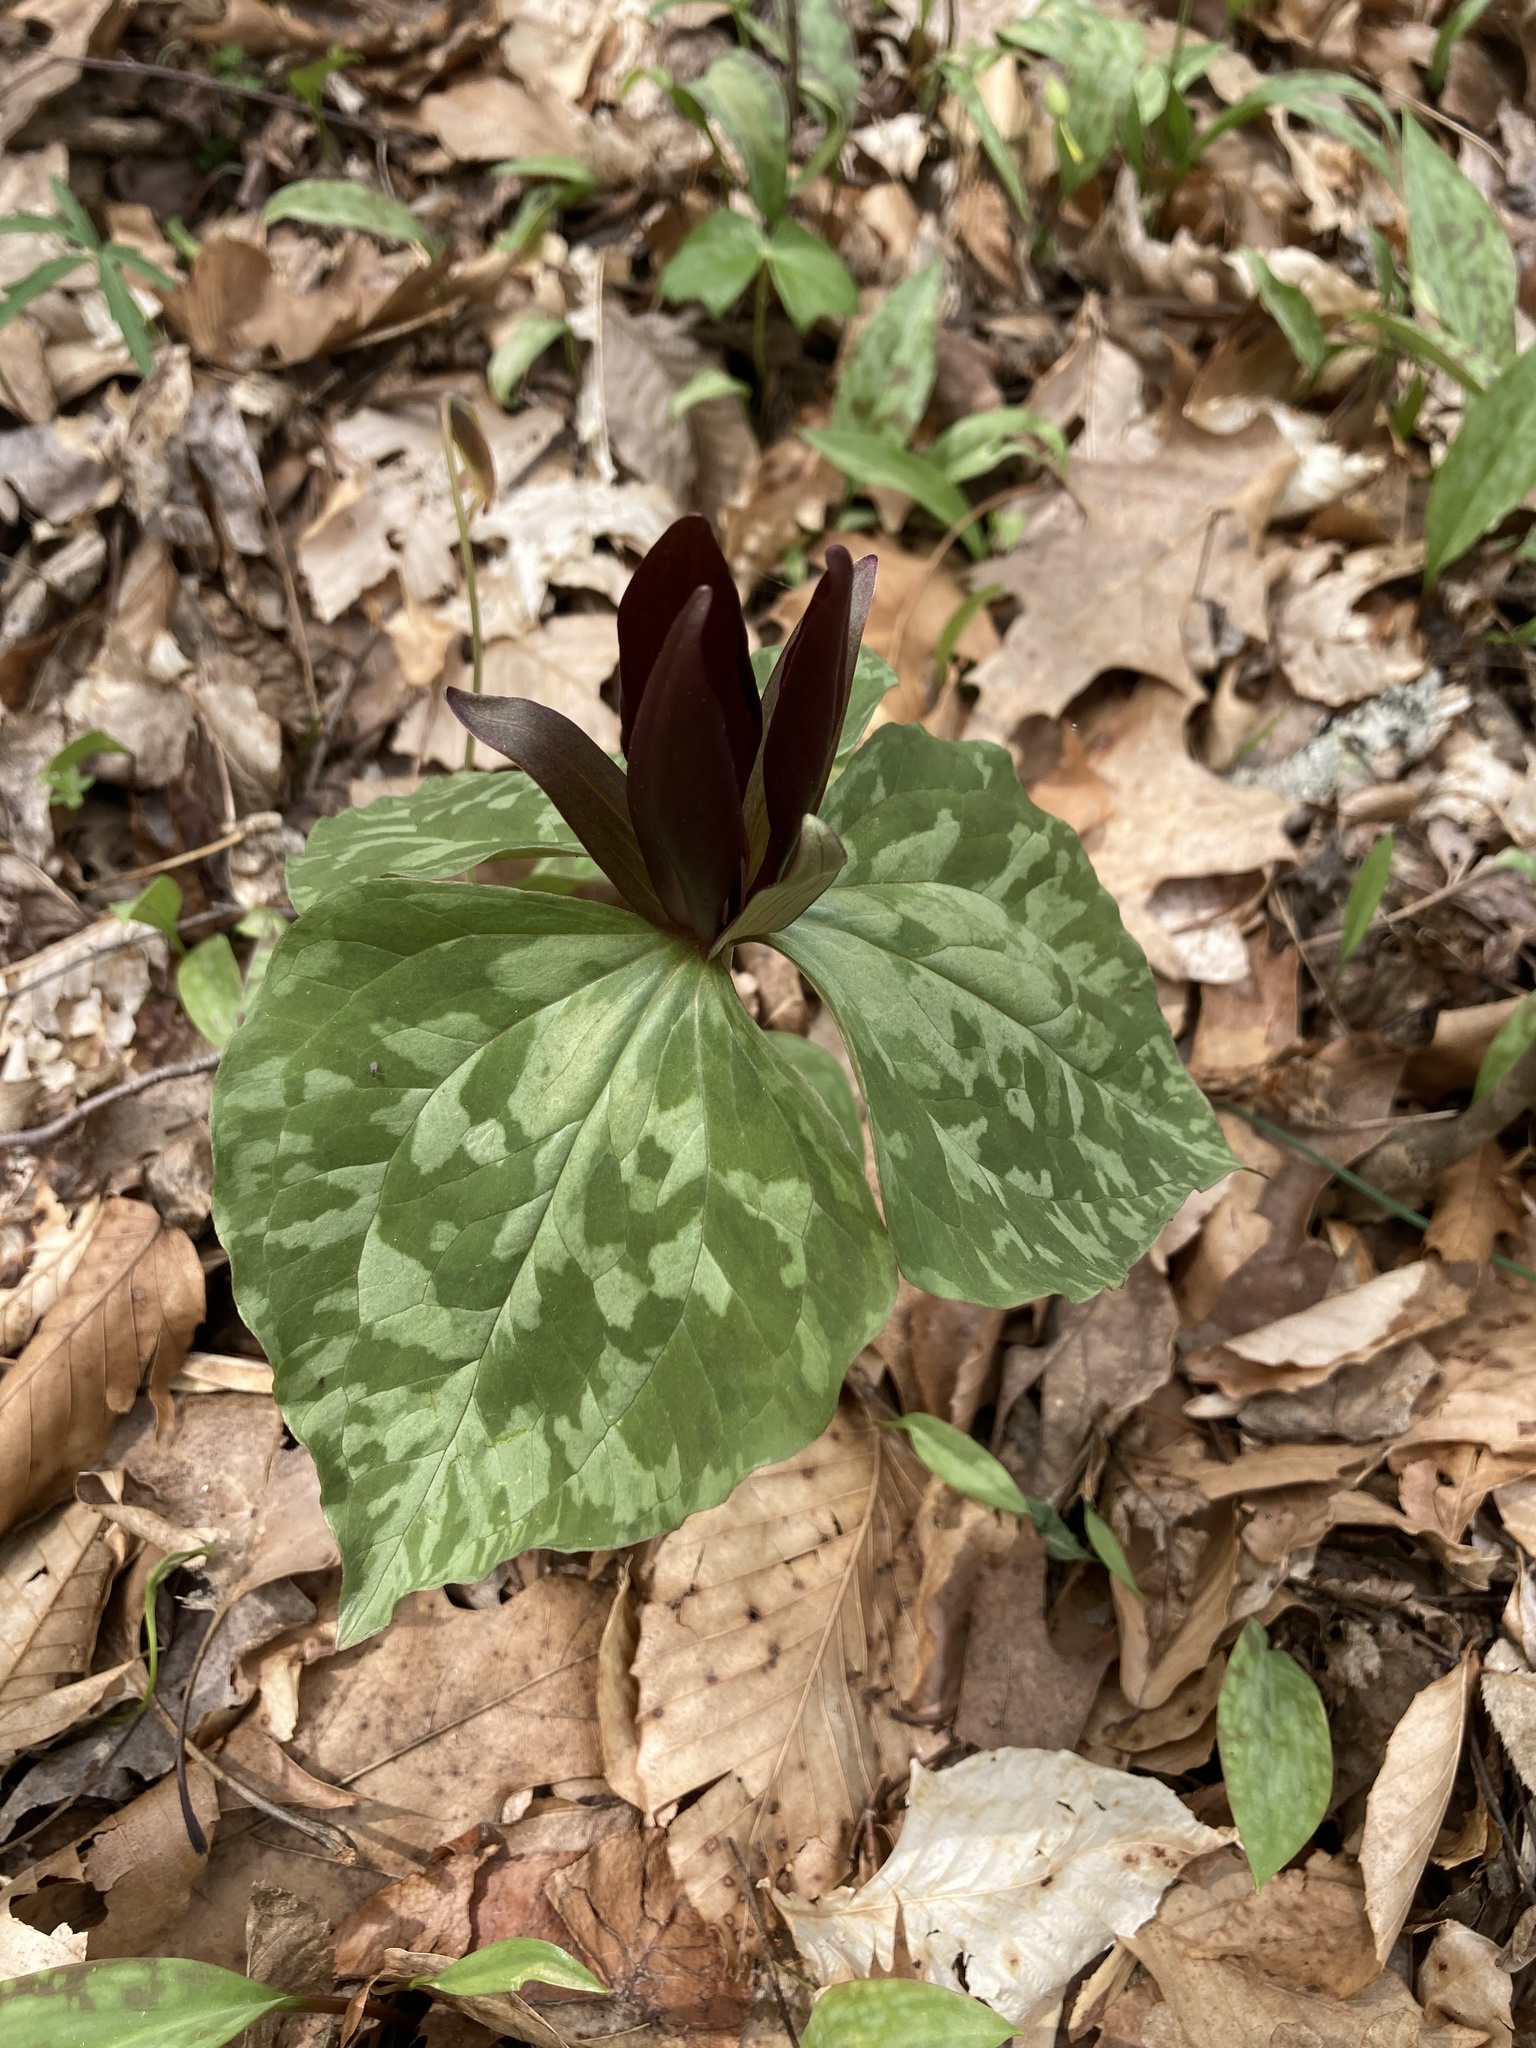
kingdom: Plantae
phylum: Tracheophyta
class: Liliopsida
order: Liliales
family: Melanthiaceae
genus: Trillium
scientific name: Trillium cuneatum
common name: Cuneate trillium
